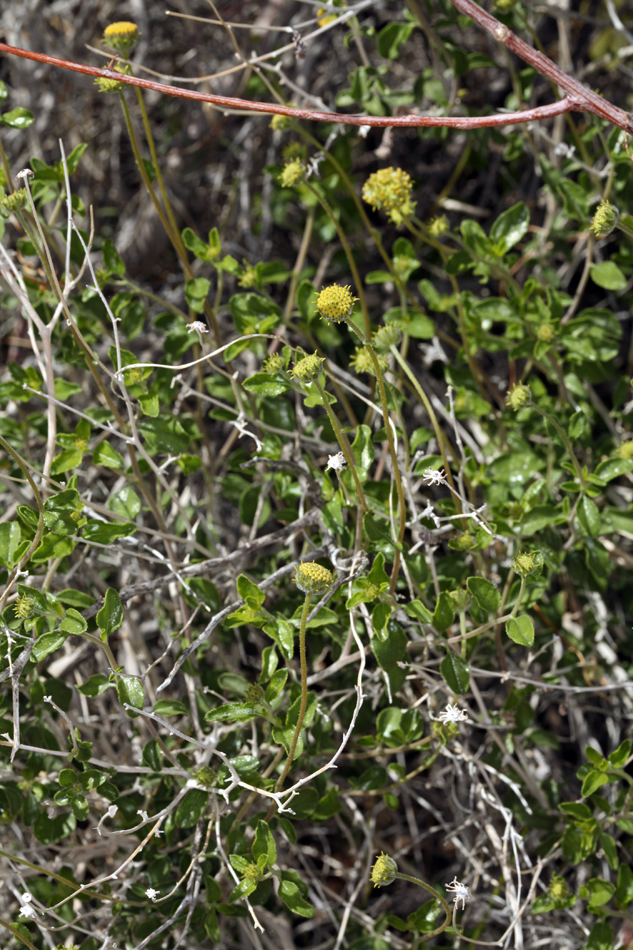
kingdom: Plantae
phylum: Tracheophyta
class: Magnoliopsida
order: Asterales
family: Asteraceae
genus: Encelia
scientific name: Encelia frutescens
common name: Bush encelia
